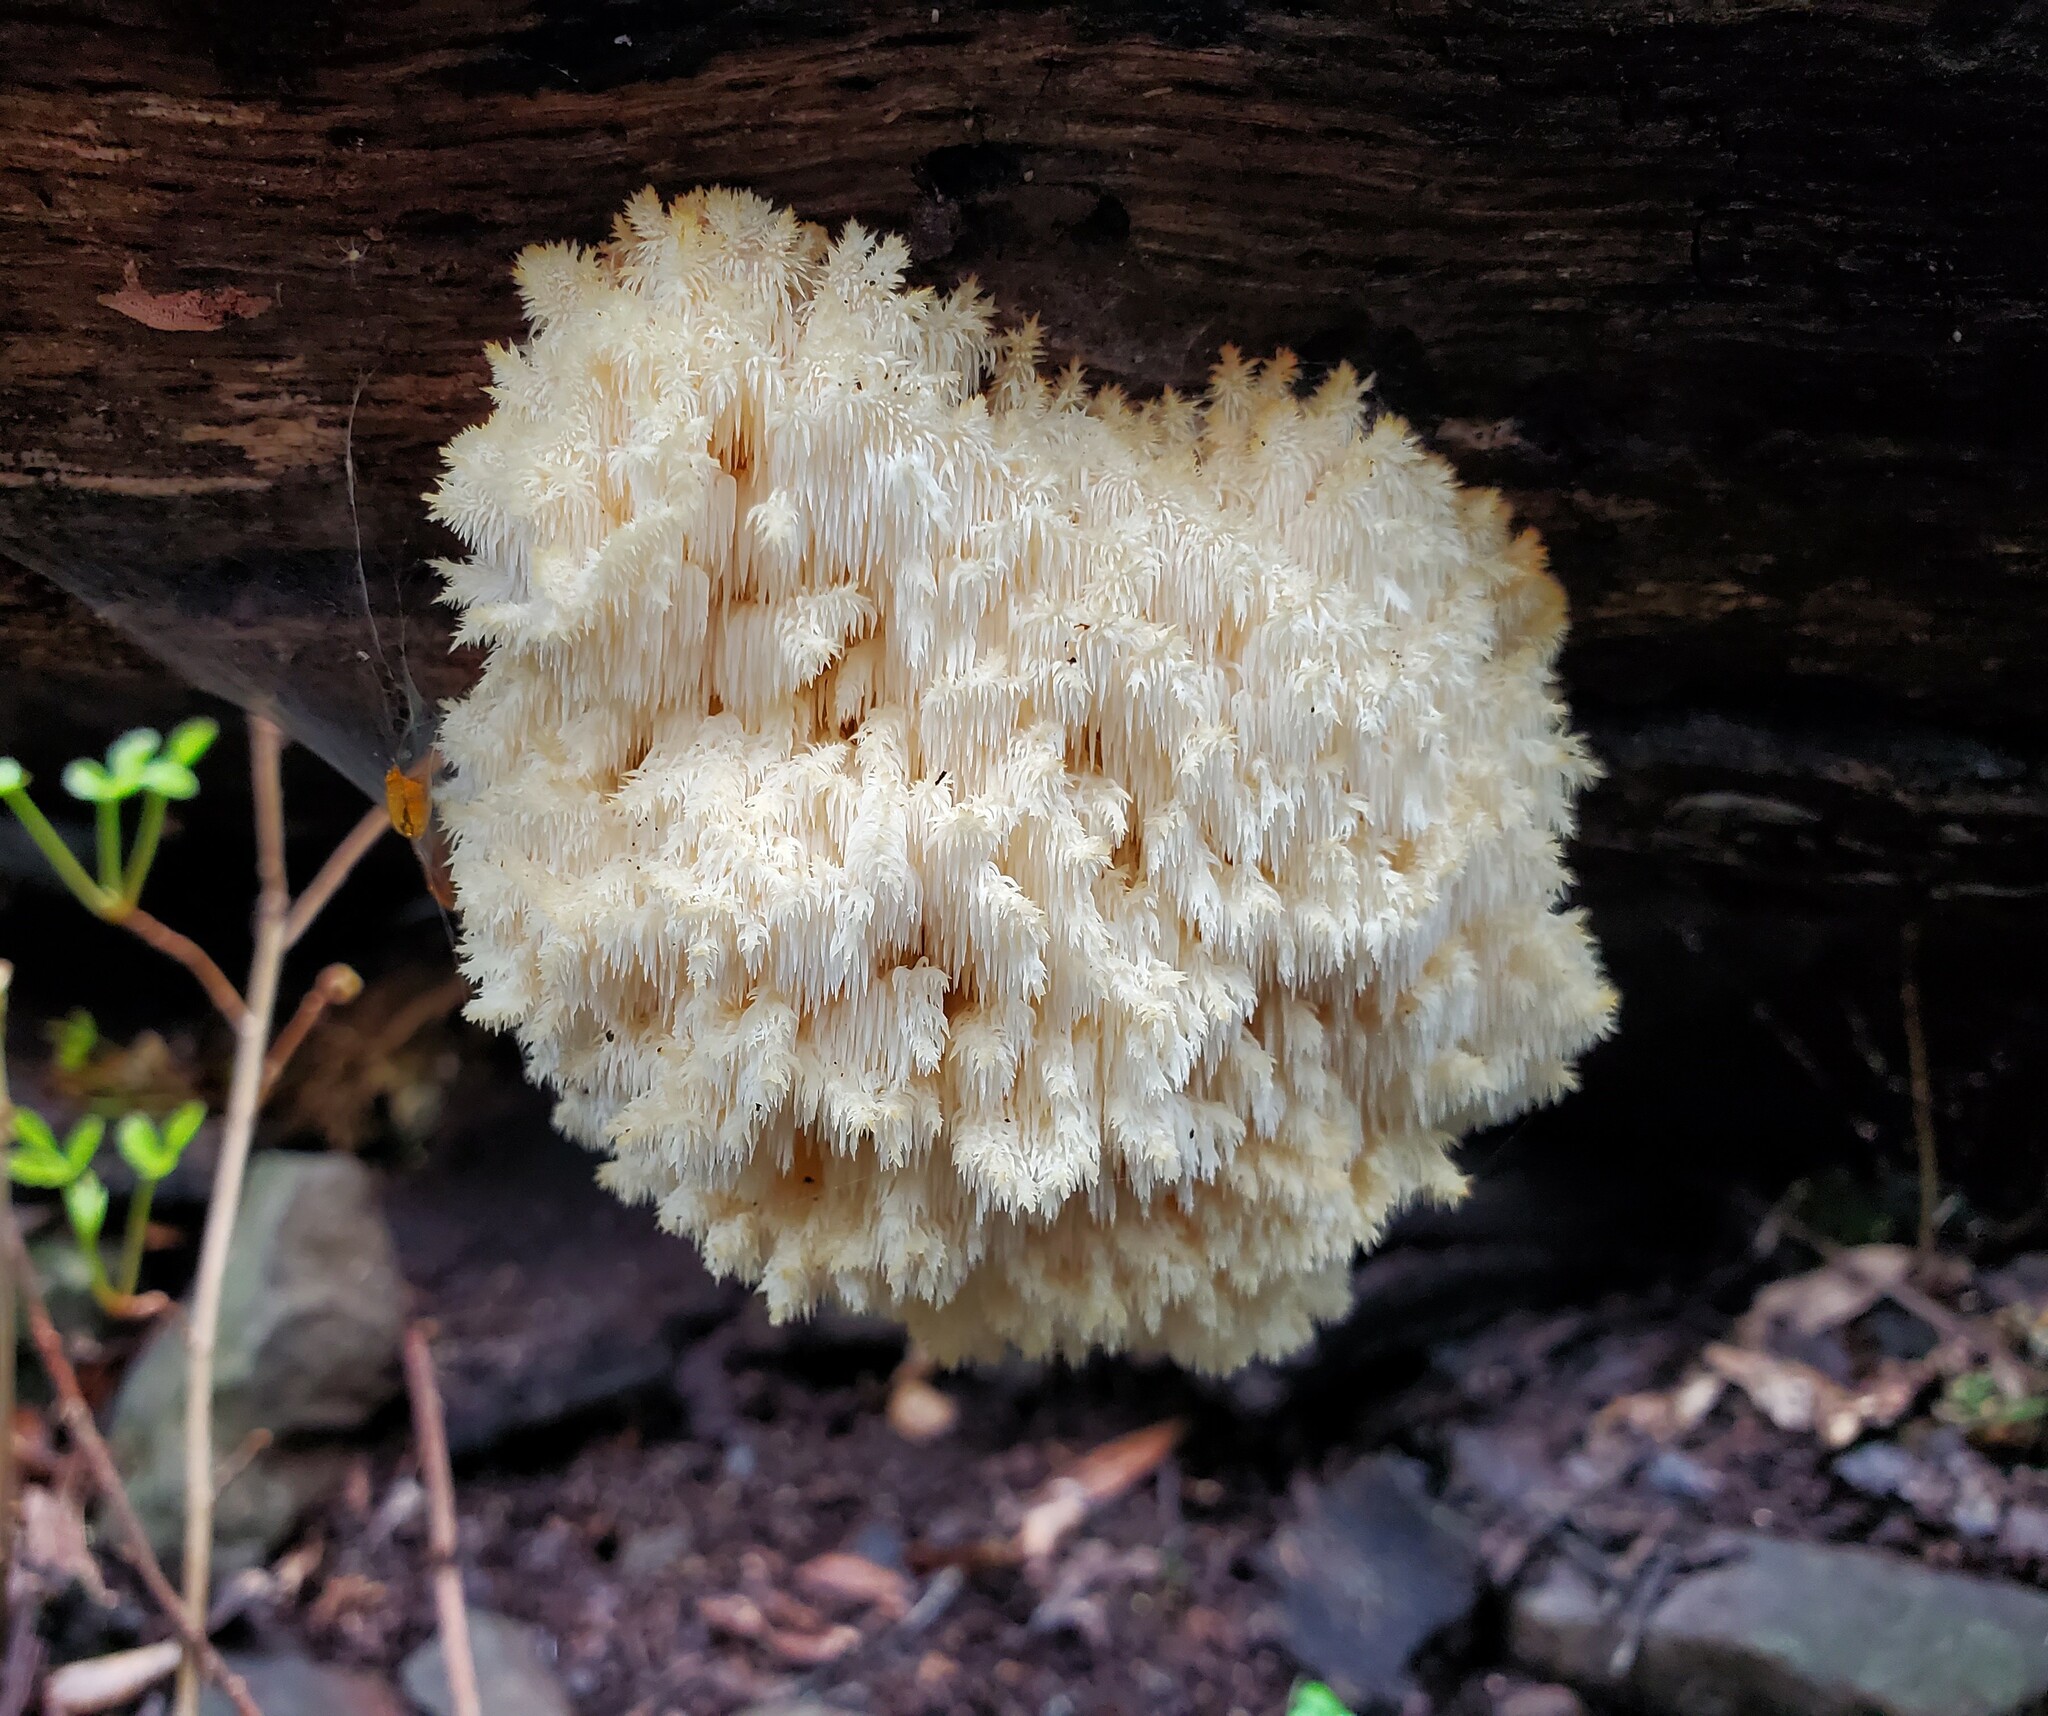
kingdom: Fungi
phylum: Basidiomycota
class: Agaricomycetes
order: Russulales
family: Hericiaceae
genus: Hericium
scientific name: Hericium coralloides
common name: Coral tooth
